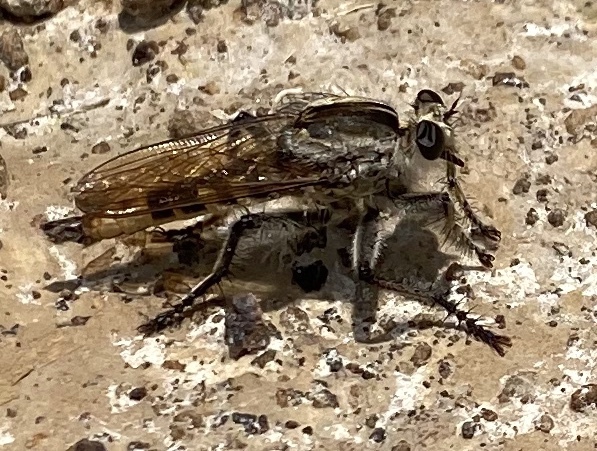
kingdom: Animalia
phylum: Arthropoda
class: Insecta
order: Diptera
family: Asilidae
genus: Triorla
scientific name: Triorla interrupta
